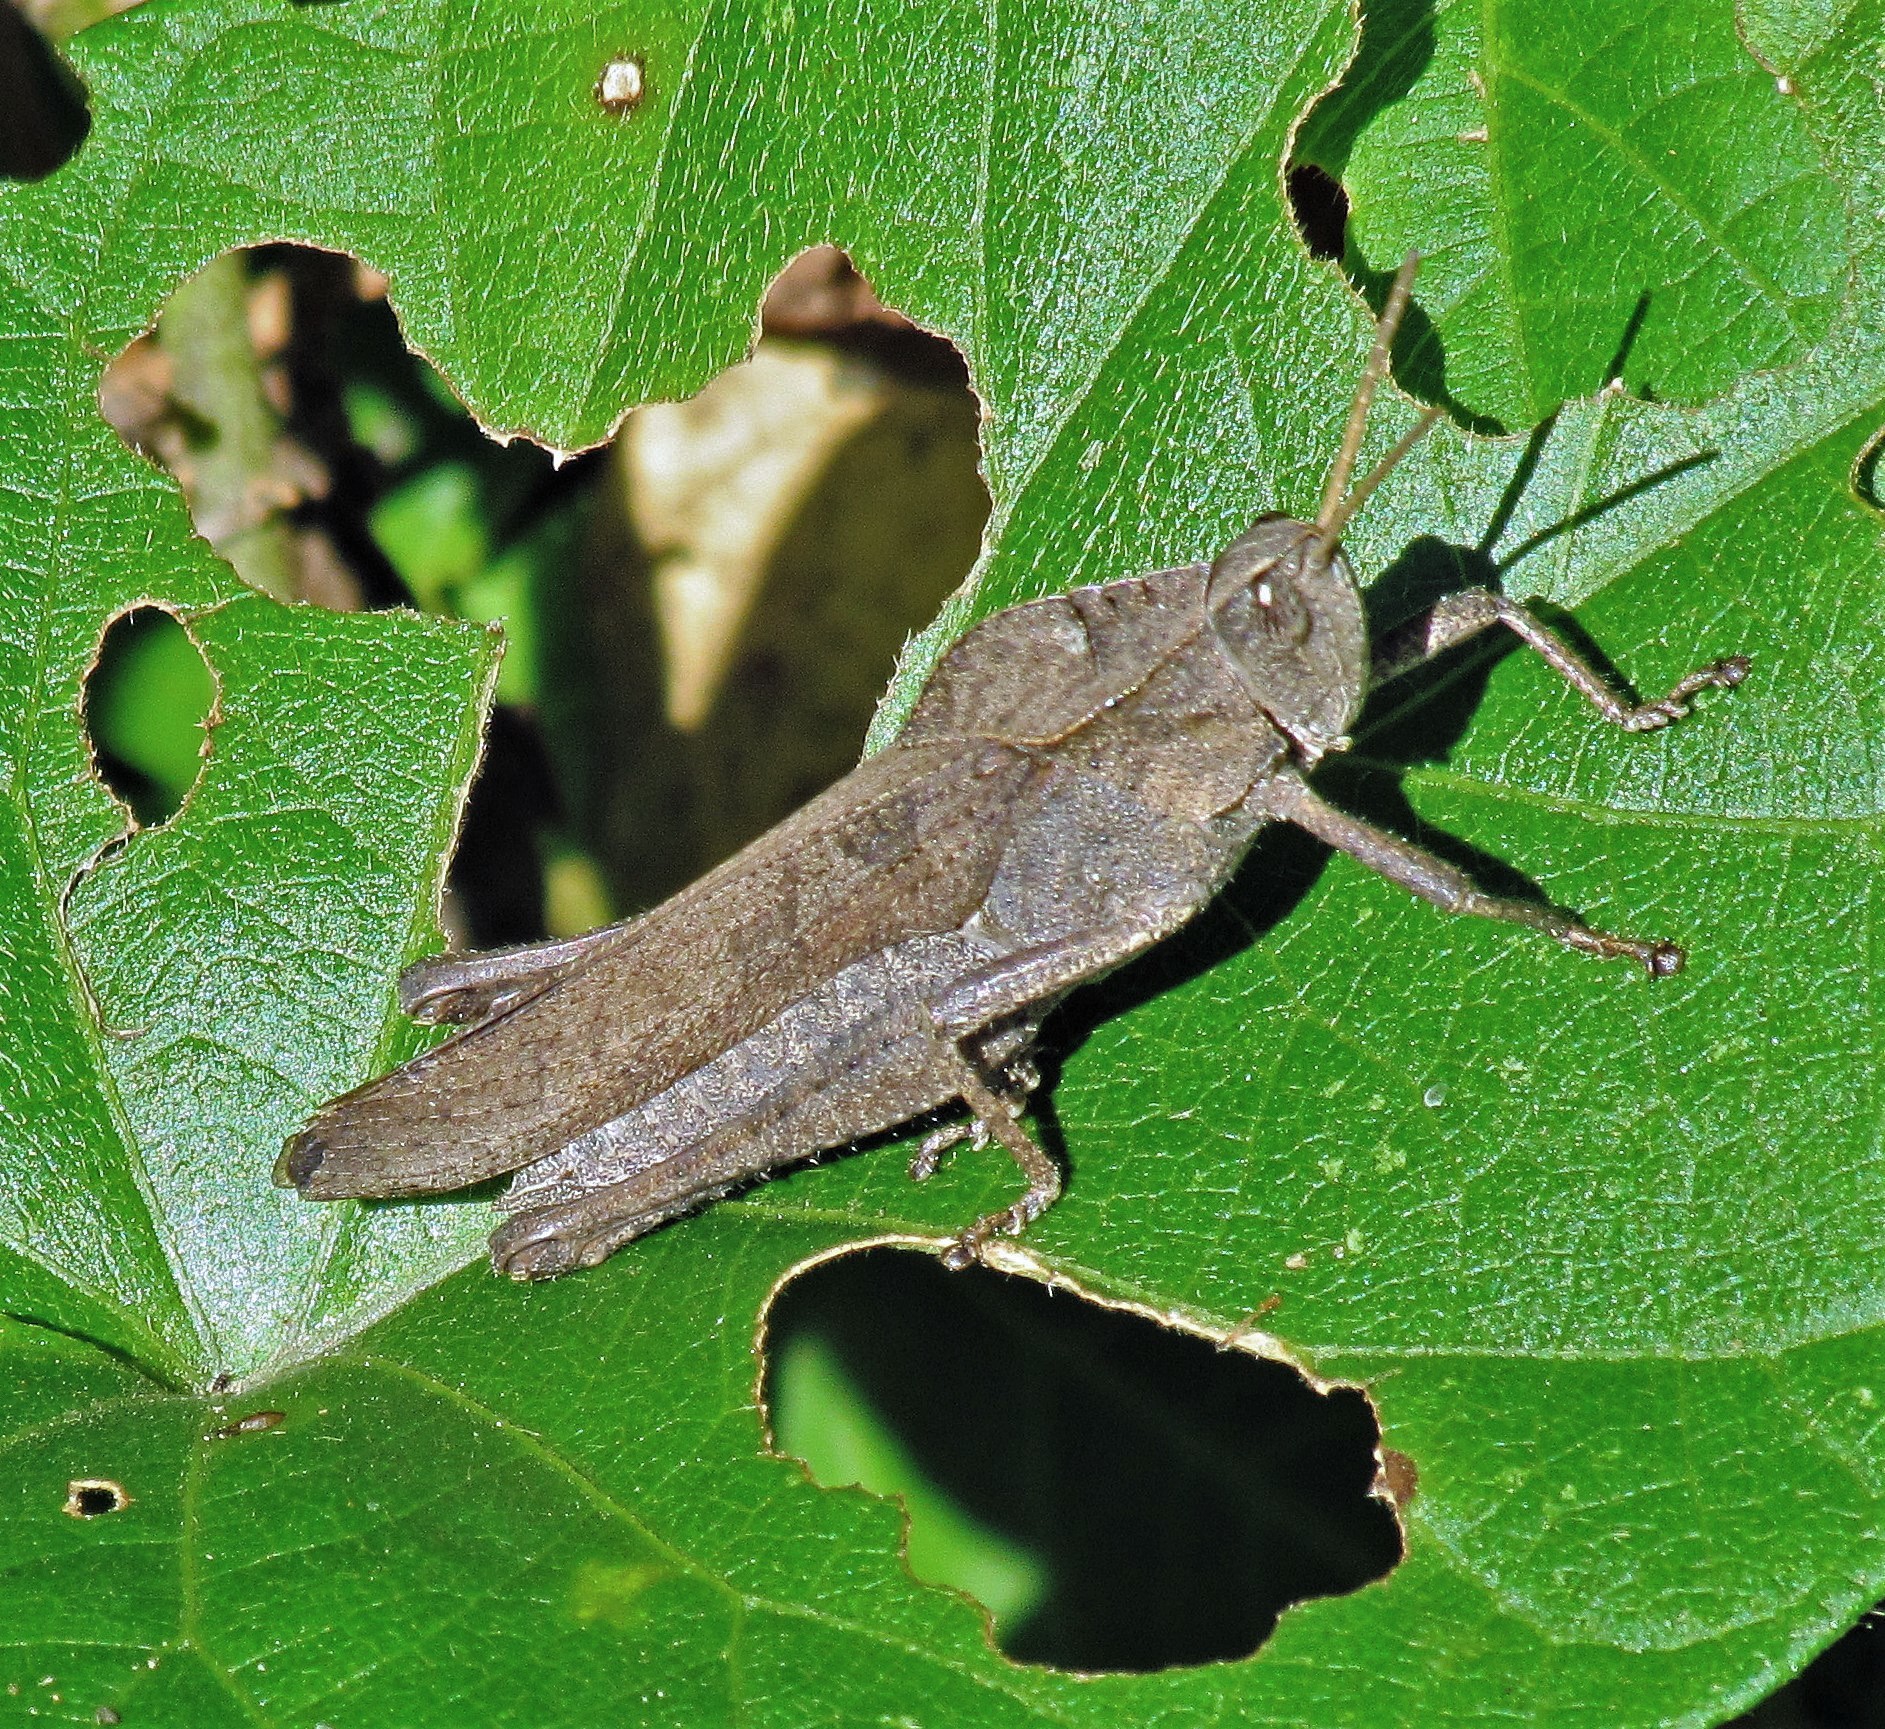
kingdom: Animalia
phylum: Arthropoda
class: Insecta
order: Orthoptera
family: Romaleidae
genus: Xyleus
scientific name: Xyleus discoideus
